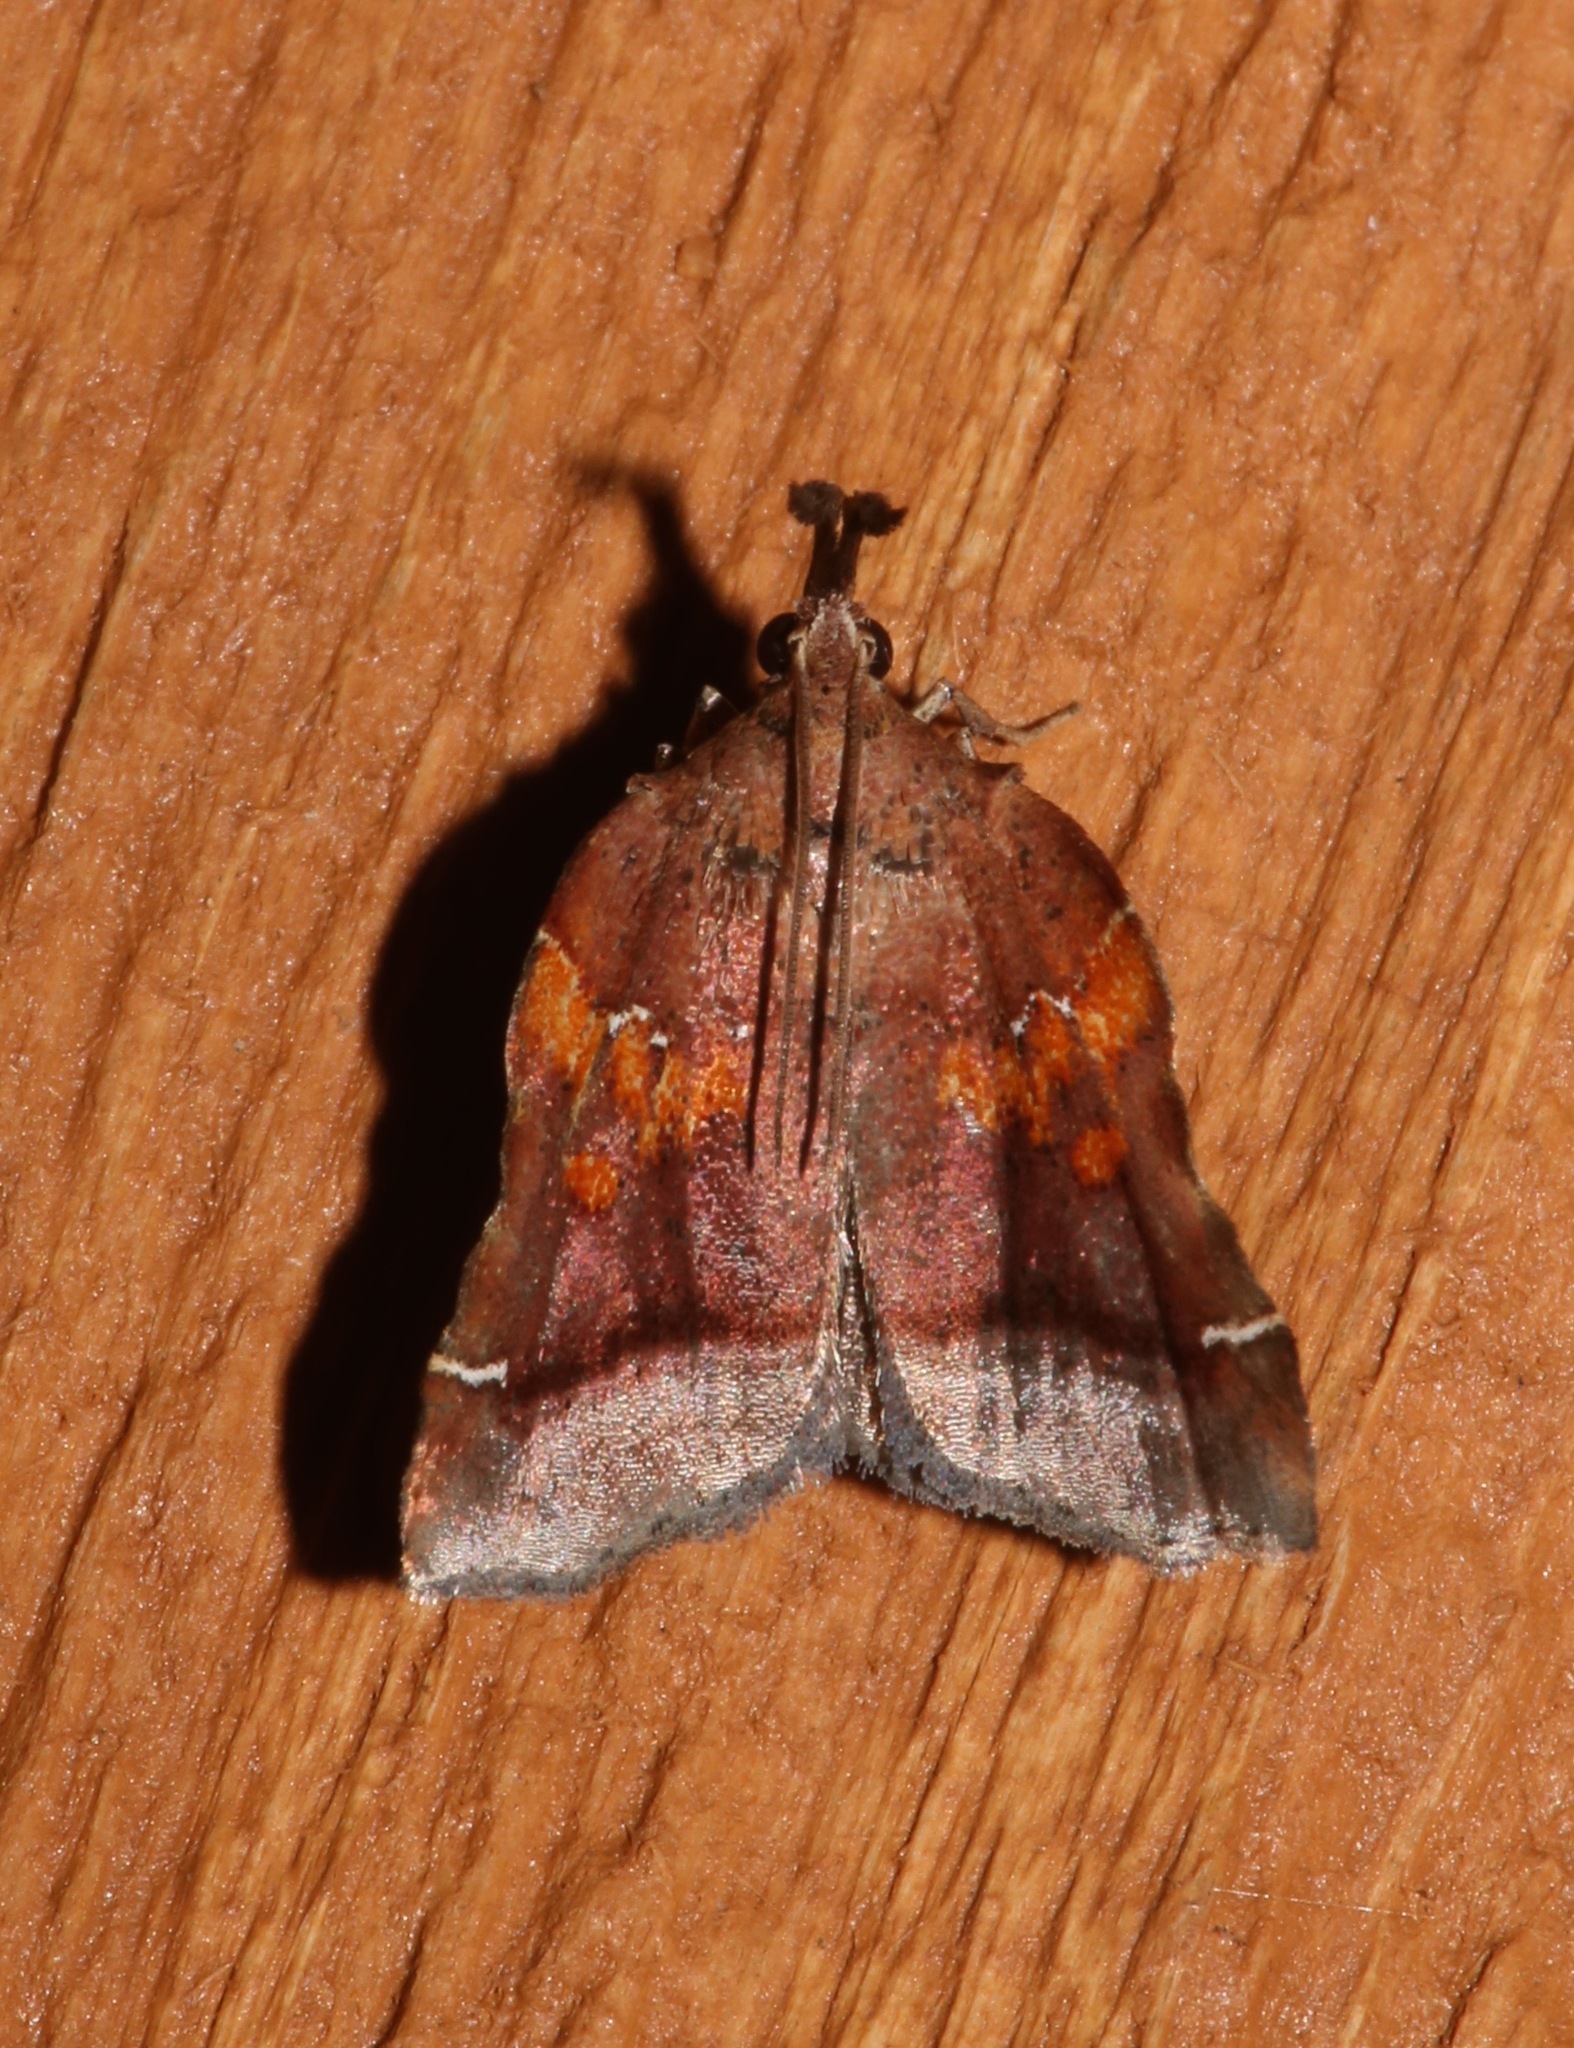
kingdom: Animalia
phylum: Arthropoda
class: Insecta
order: Lepidoptera
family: Pyralidae
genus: Clydonopteron
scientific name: Clydonopteron sacculana
